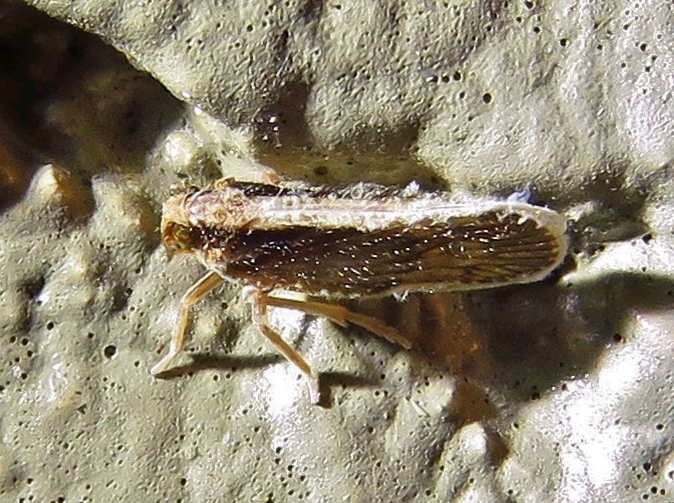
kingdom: Animalia
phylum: Arthropoda
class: Insecta
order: Hemiptera
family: Cixiidae
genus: Pintalia
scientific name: Pintalia delicata
